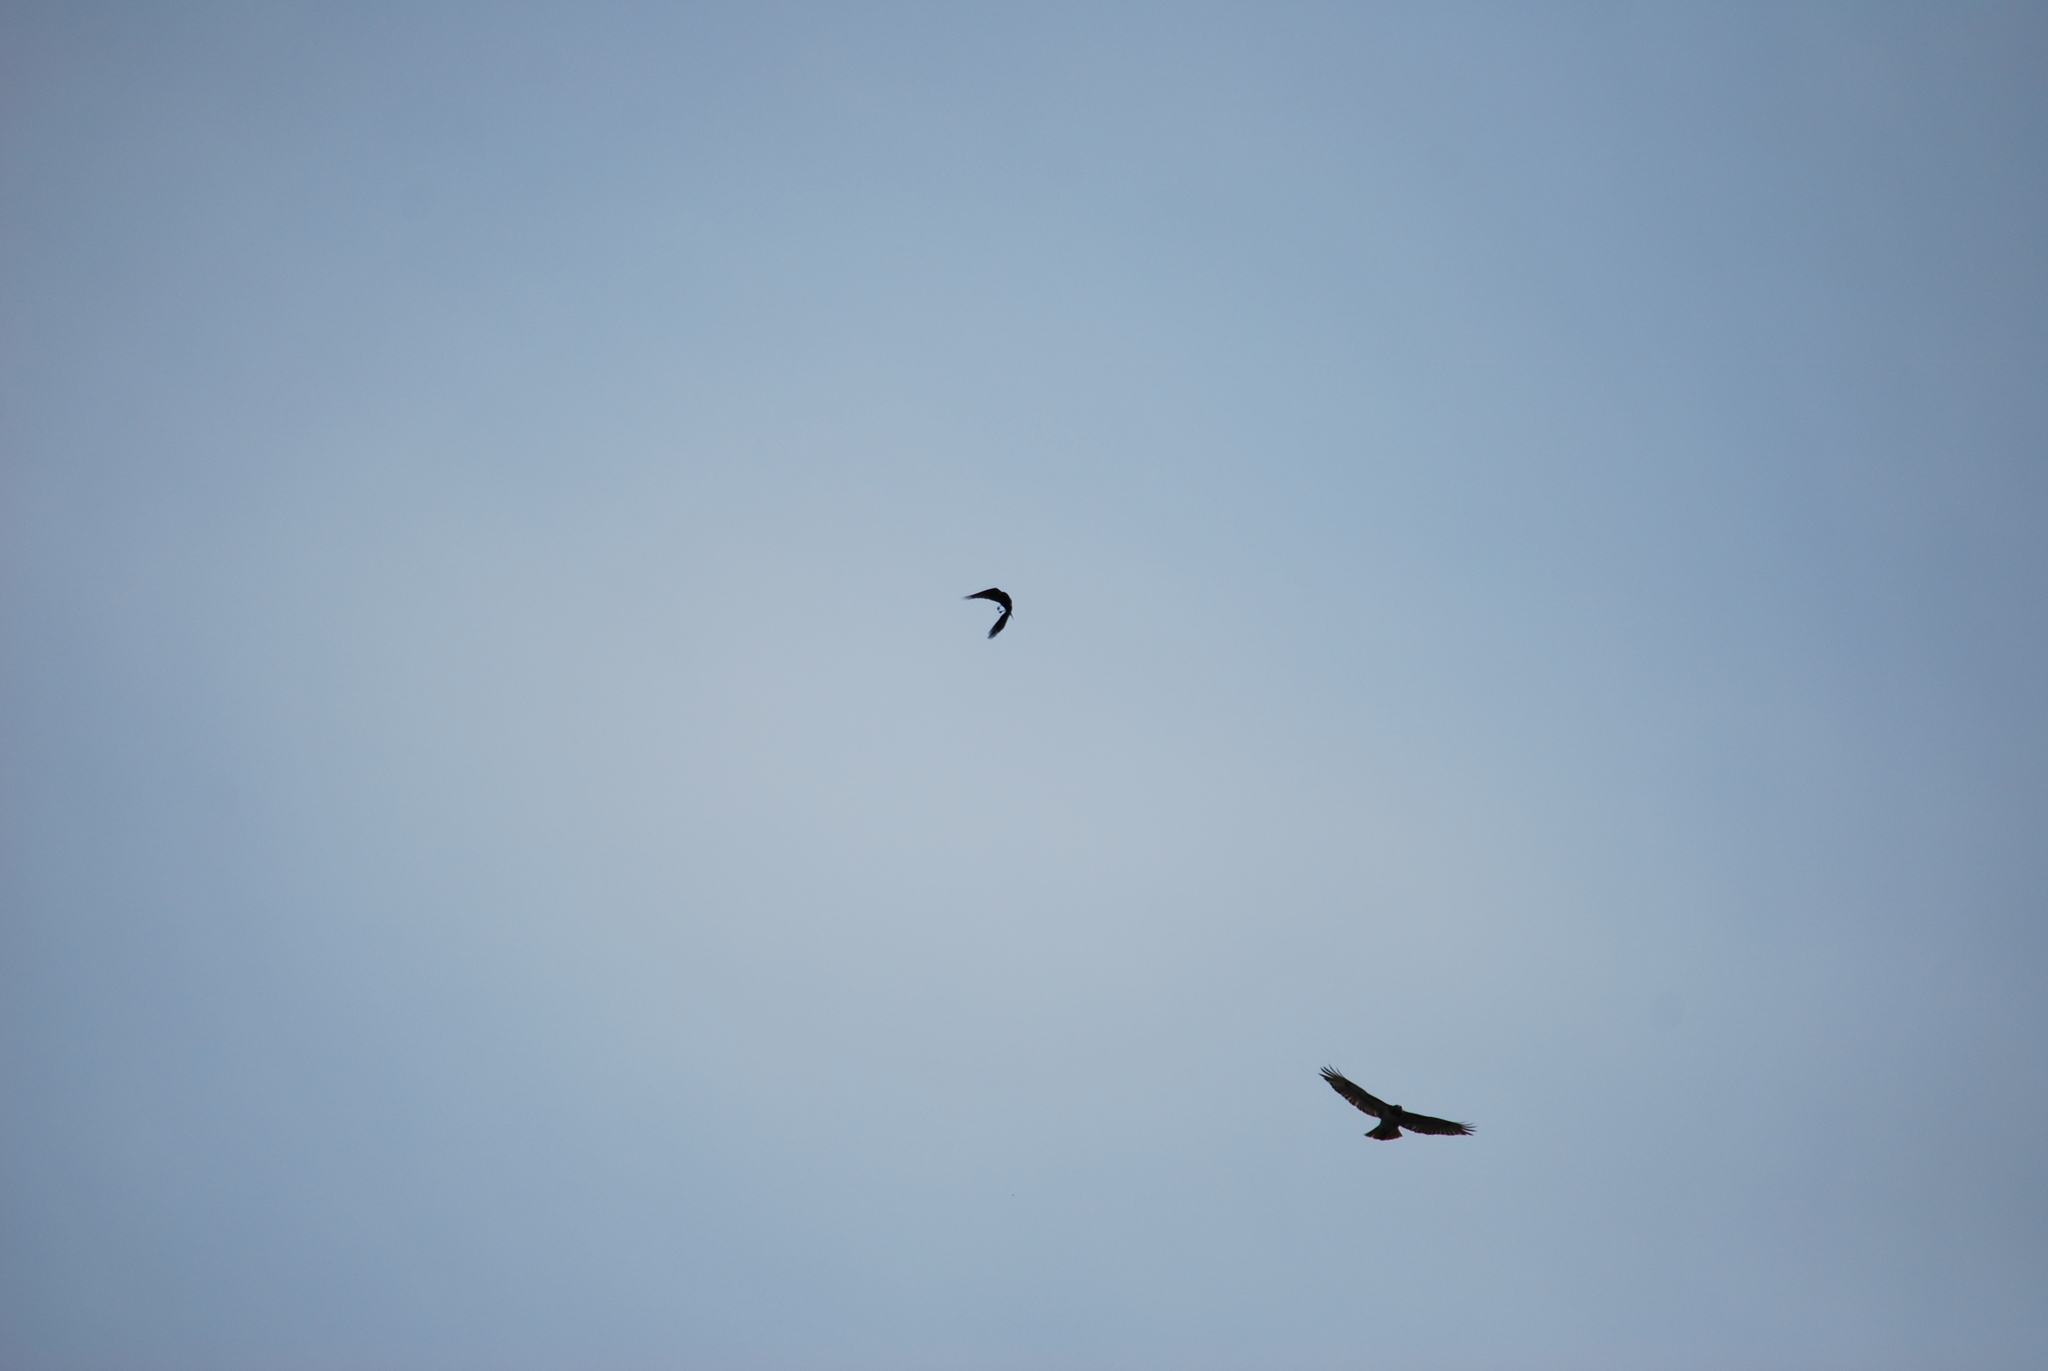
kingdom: Animalia
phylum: Chordata
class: Aves
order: Passeriformes
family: Corvidae
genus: Corvus
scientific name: Corvus brachyrhynchos
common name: American crow
